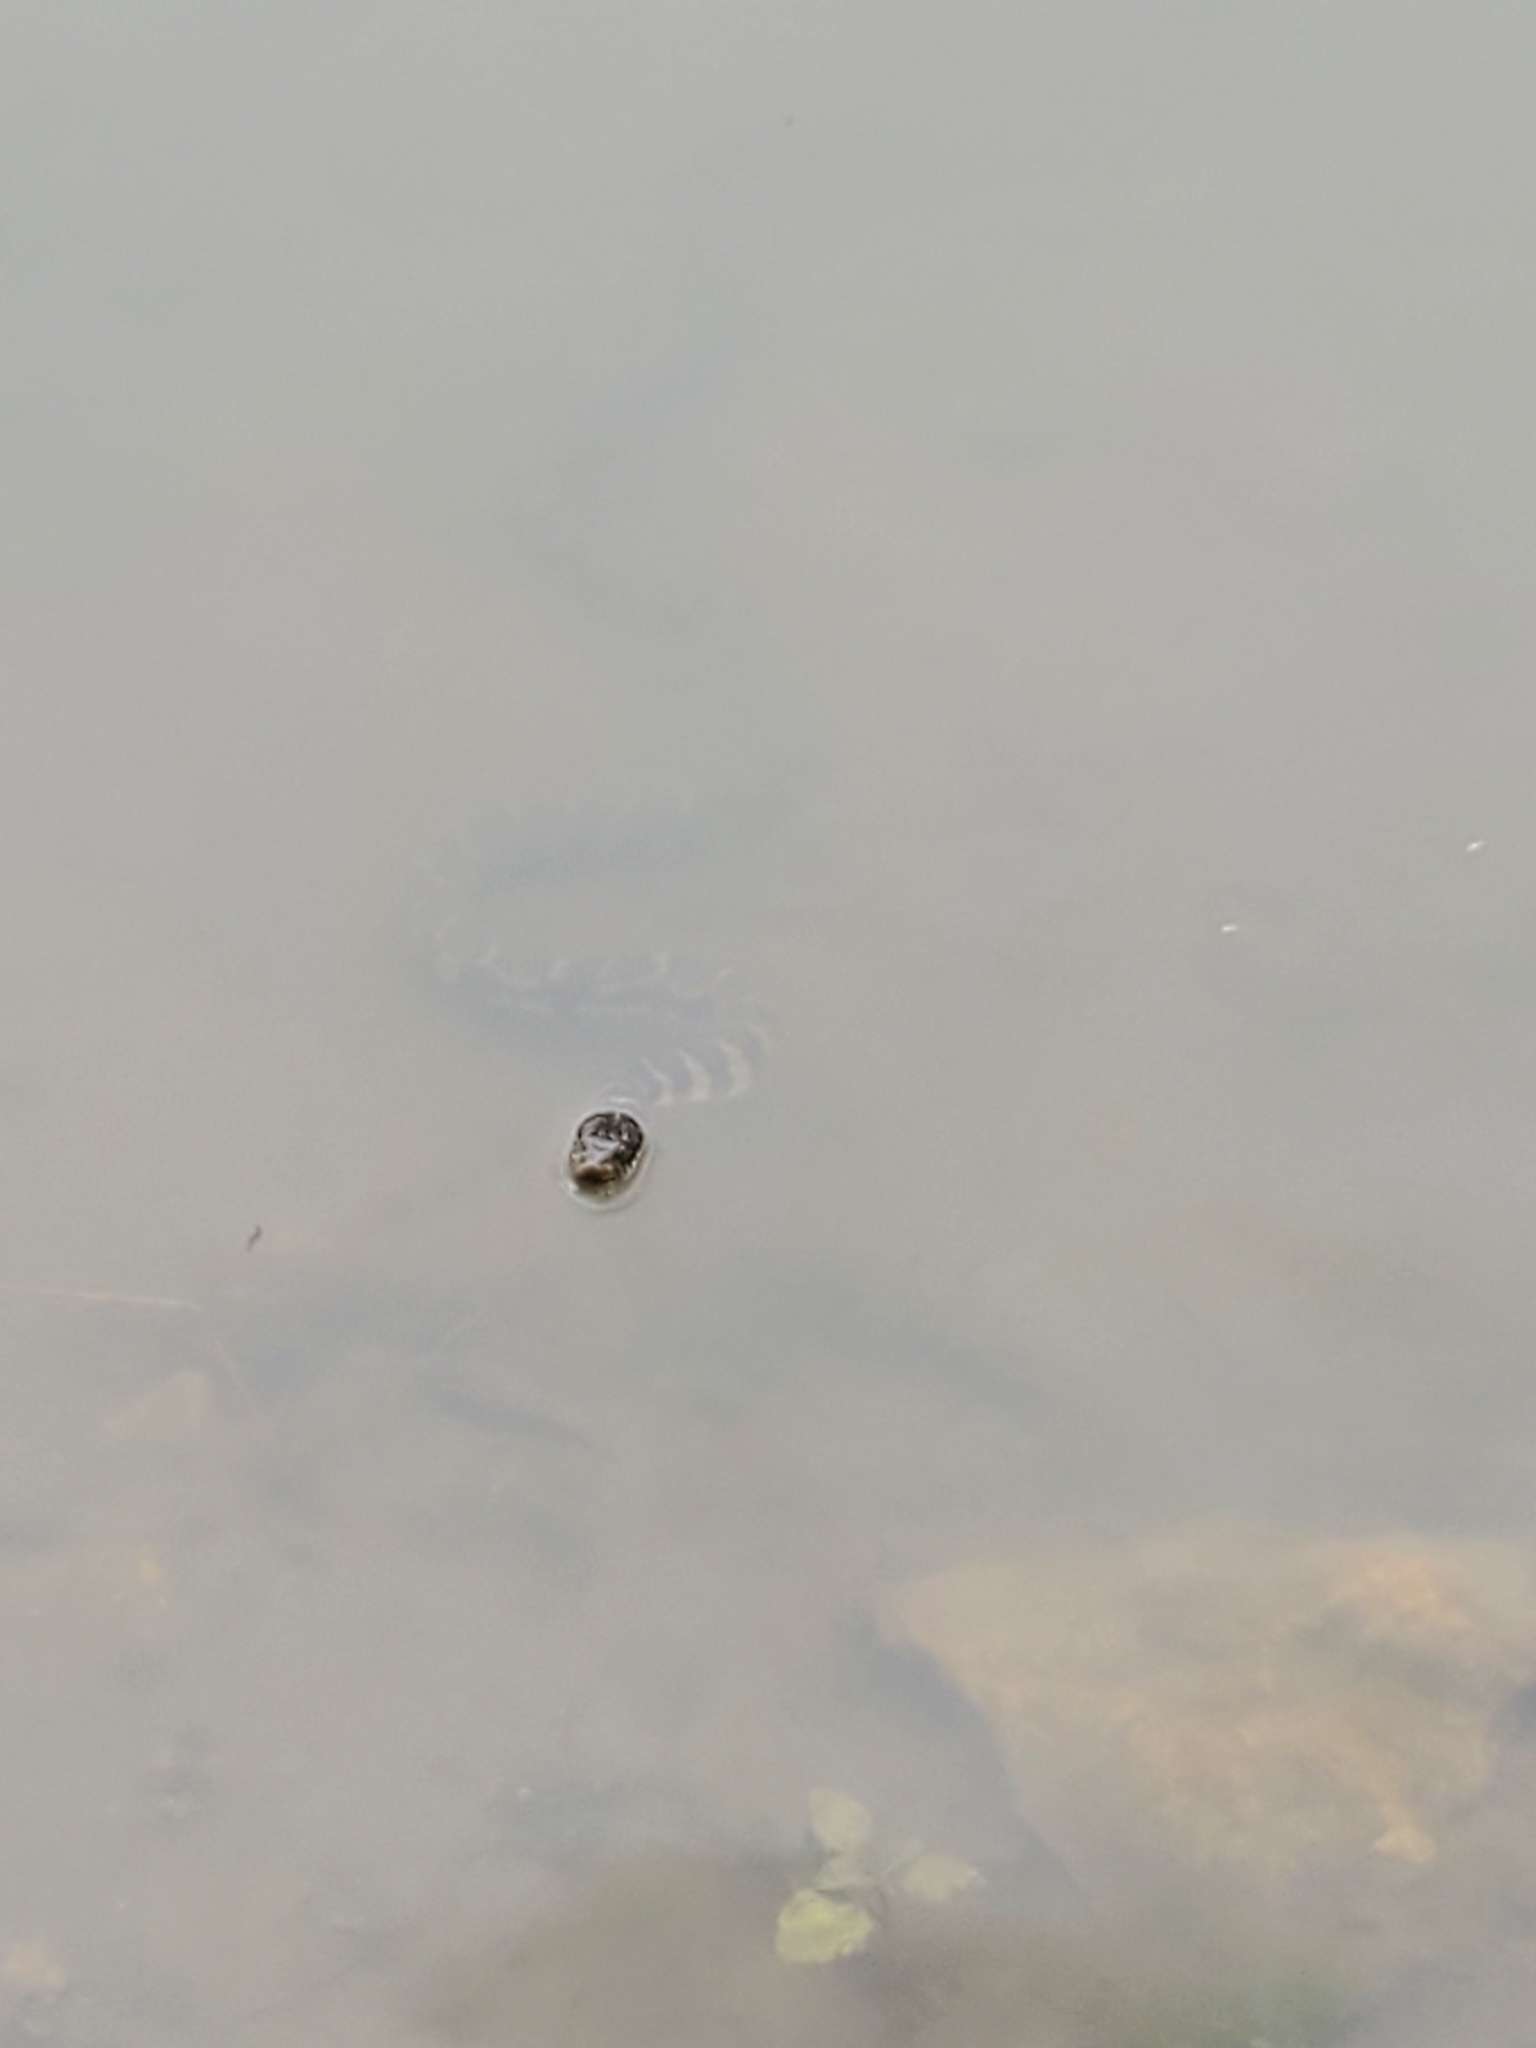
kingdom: Animalia
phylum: Chordata
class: Squamata
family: Colubridae
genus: Nerodia
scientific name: Nerodia sipedon
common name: Northern water snake
